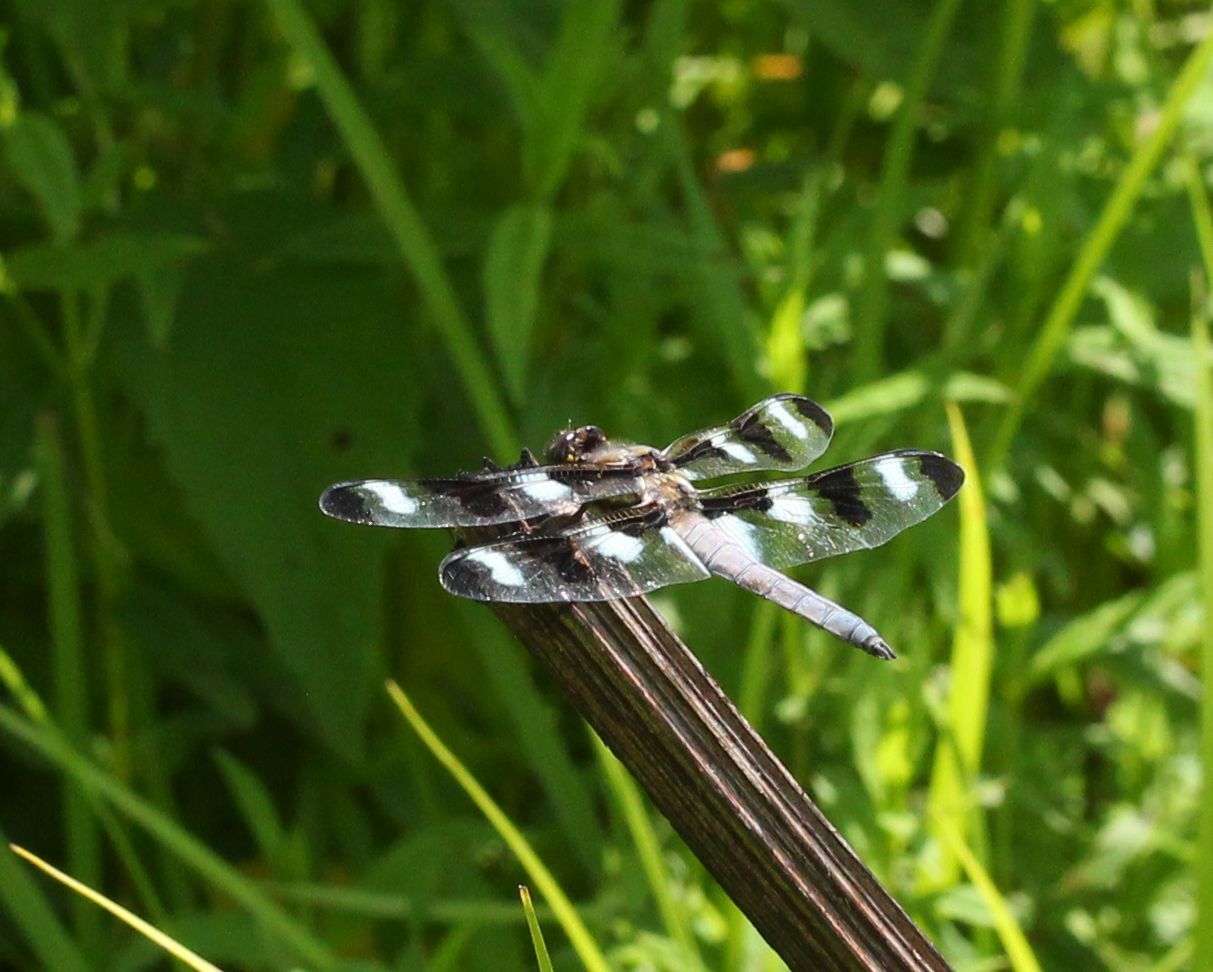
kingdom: Animalia
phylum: Arthropoda
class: Insecta
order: Odonata
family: Libellulidae
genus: Libellula
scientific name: Libellula pulchella
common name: Twelve-spotted skimmer
